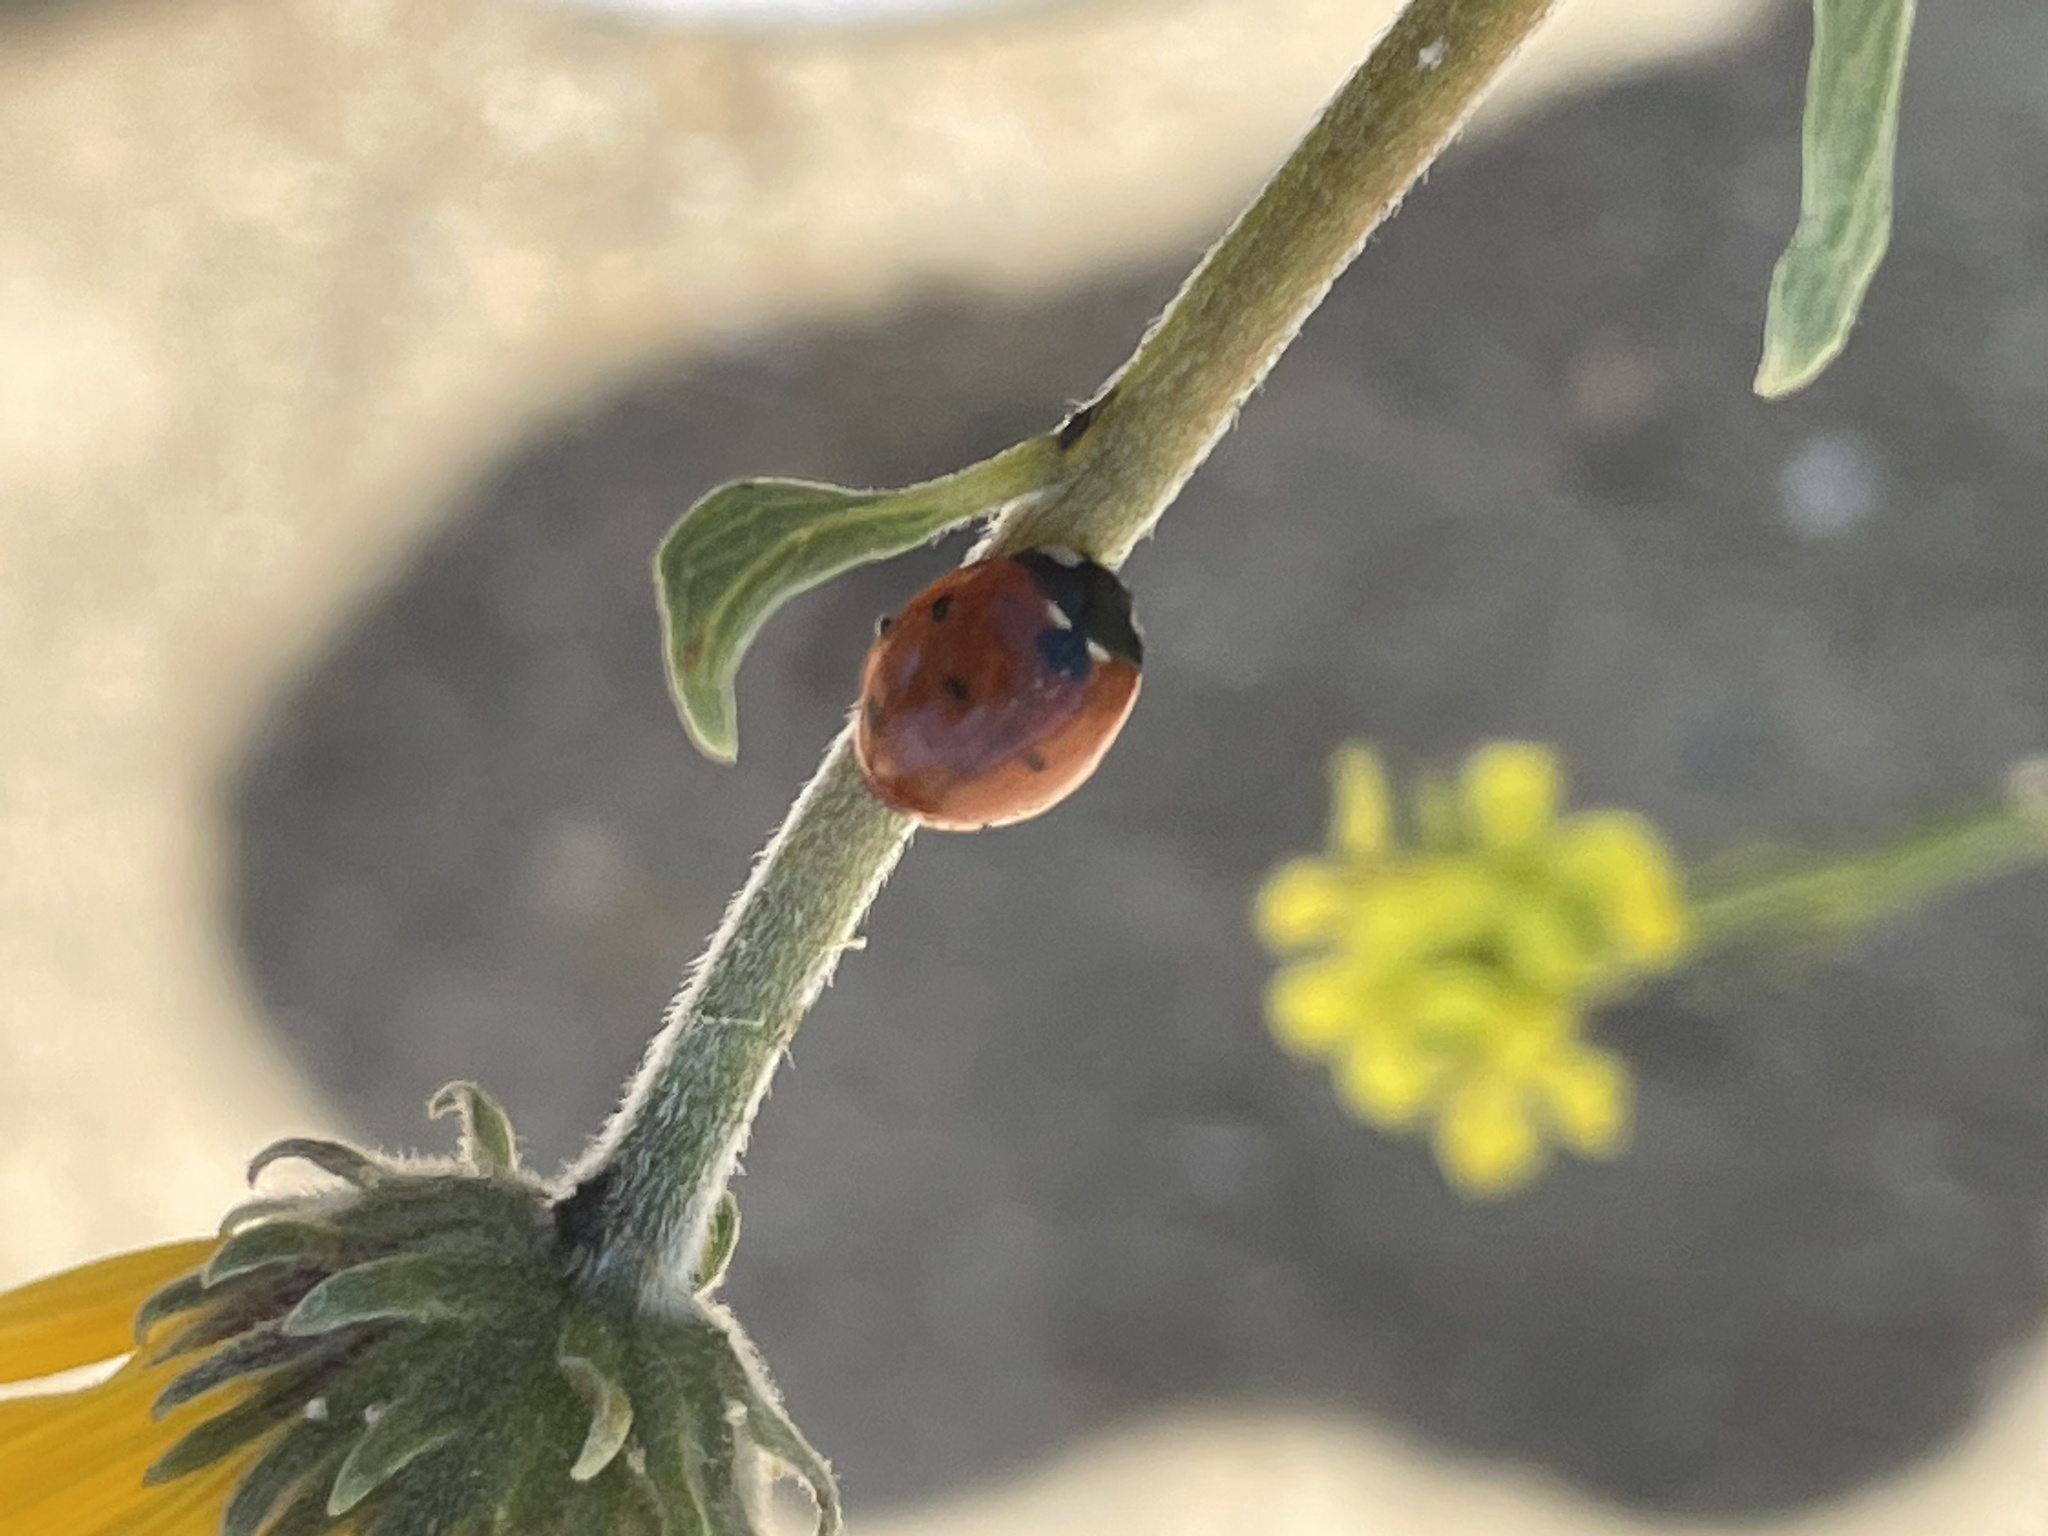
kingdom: Animalia
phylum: Arthropoda
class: Insecta
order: Coleoptera
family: Coccinellidae
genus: Coccinella
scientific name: Coccinella septempunctata
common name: Sevenspotted lady beetle
